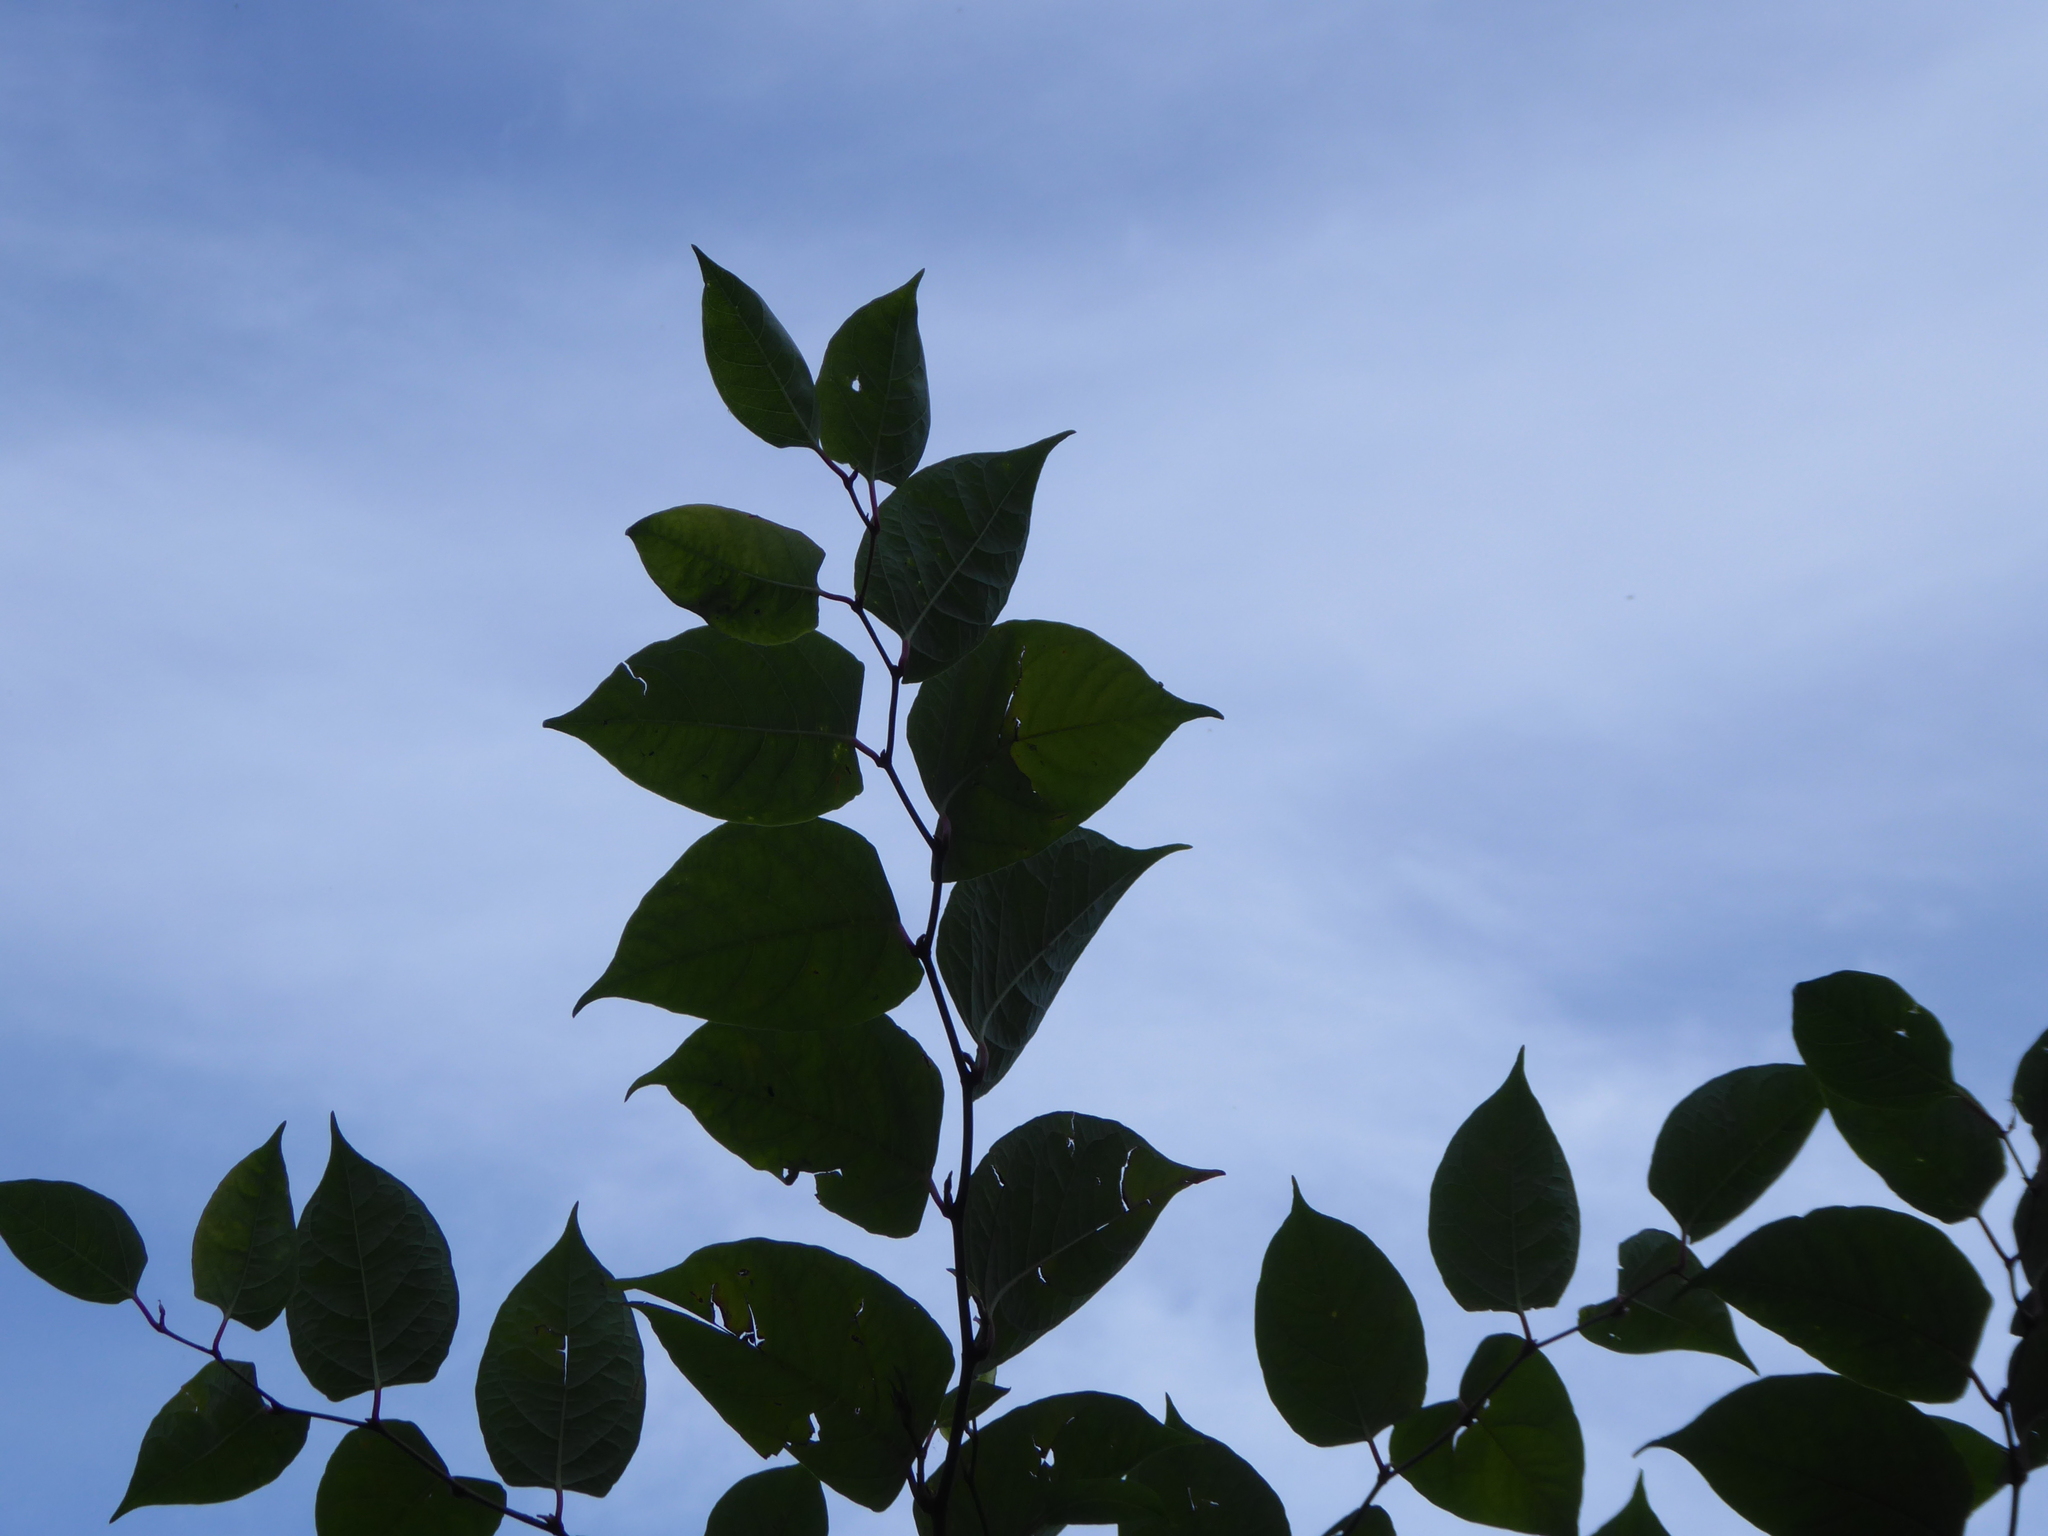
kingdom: Plantae
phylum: Tracheophyta
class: Magnoliopsida
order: Caryophyllales
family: Polygonaceae
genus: Reynoutria
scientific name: Reynoutria japonica
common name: Japanese knotweed
